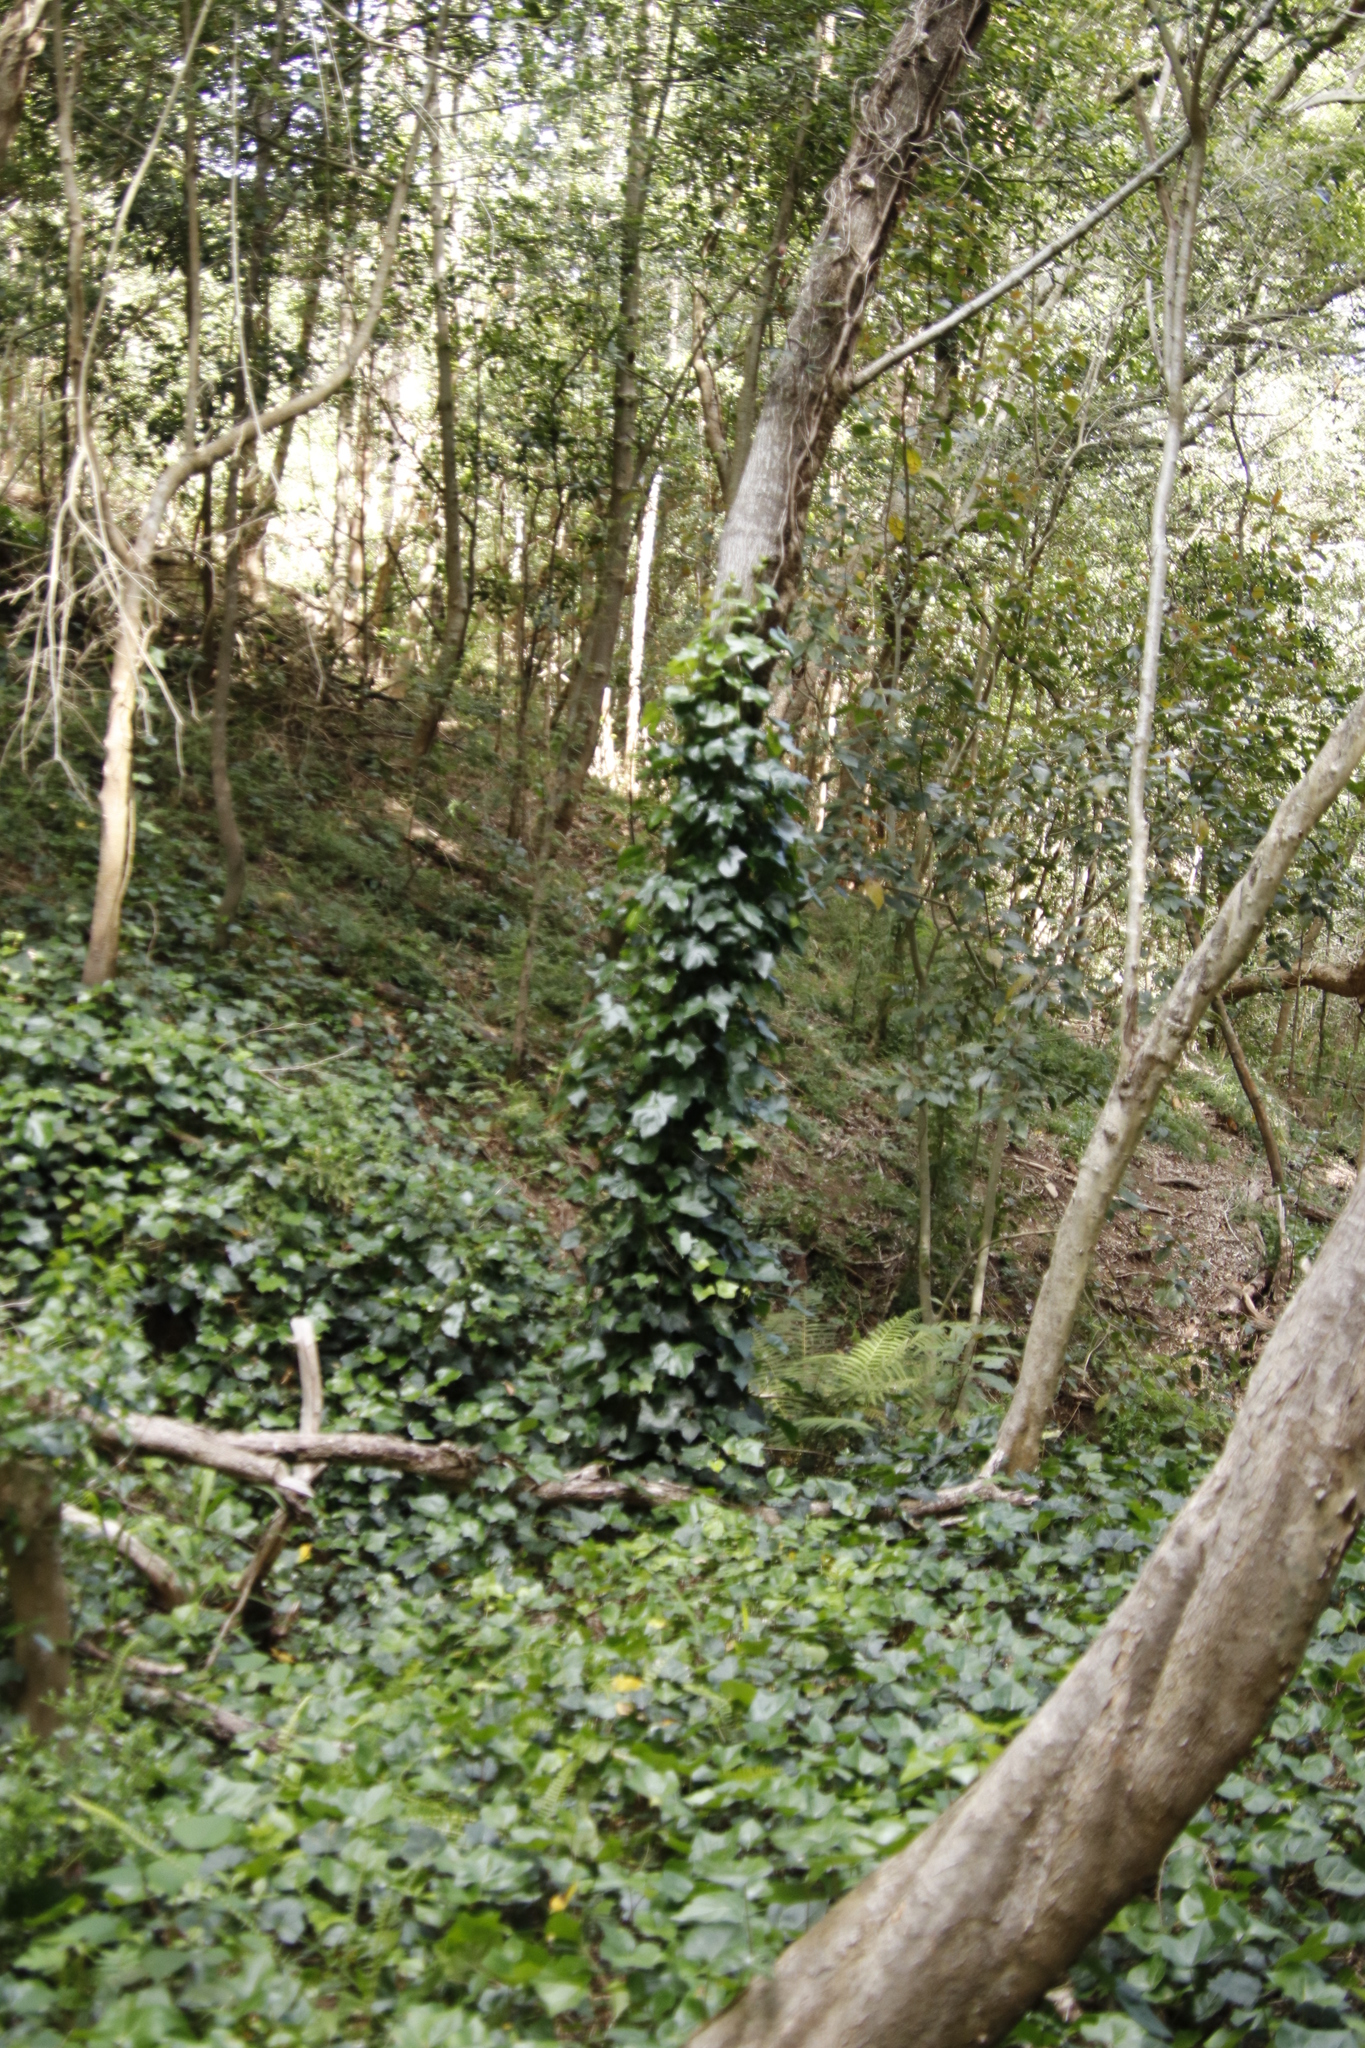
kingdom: Plantae
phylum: Tracheophyta
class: Magnoliopsida
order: Apiales
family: Araliaceae
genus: Hedera
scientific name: Hedera helix
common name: Ivy
